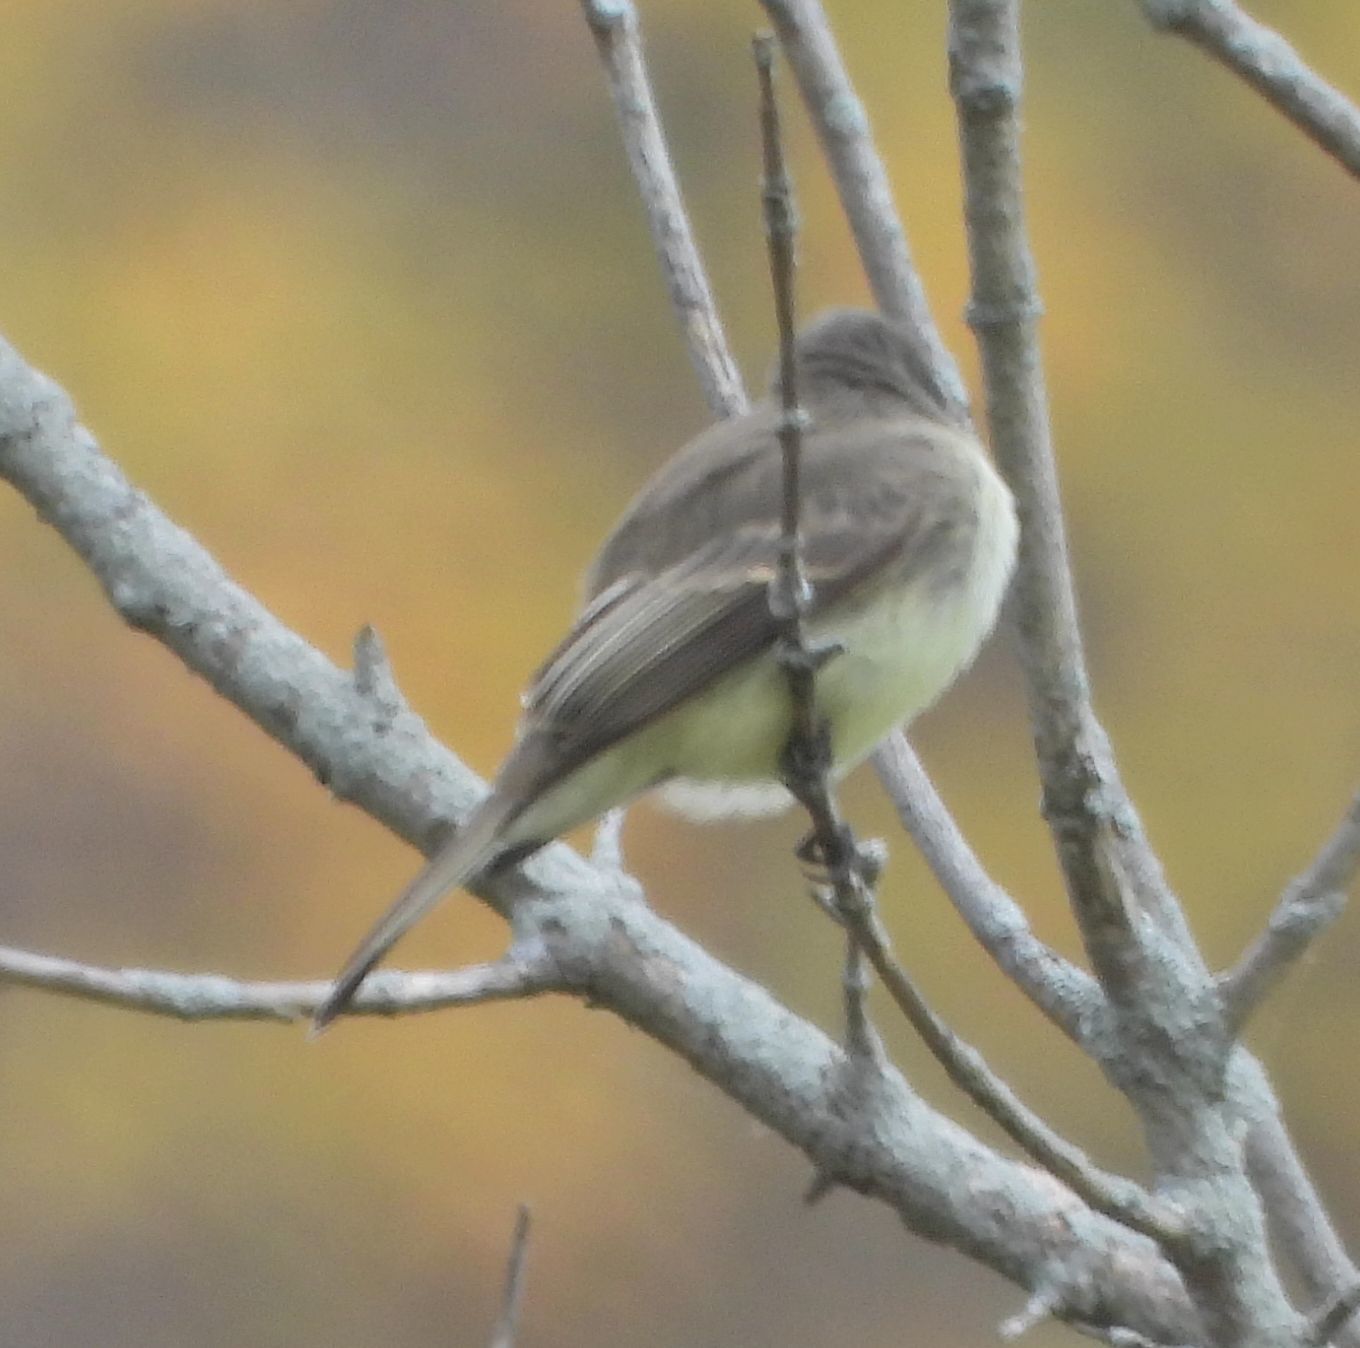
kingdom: Animalia
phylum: Chordata
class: Aves
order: Passeriformes
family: Tyrannidae
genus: Sayornis
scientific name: Sayornis phoebe
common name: Eastern phoebe
